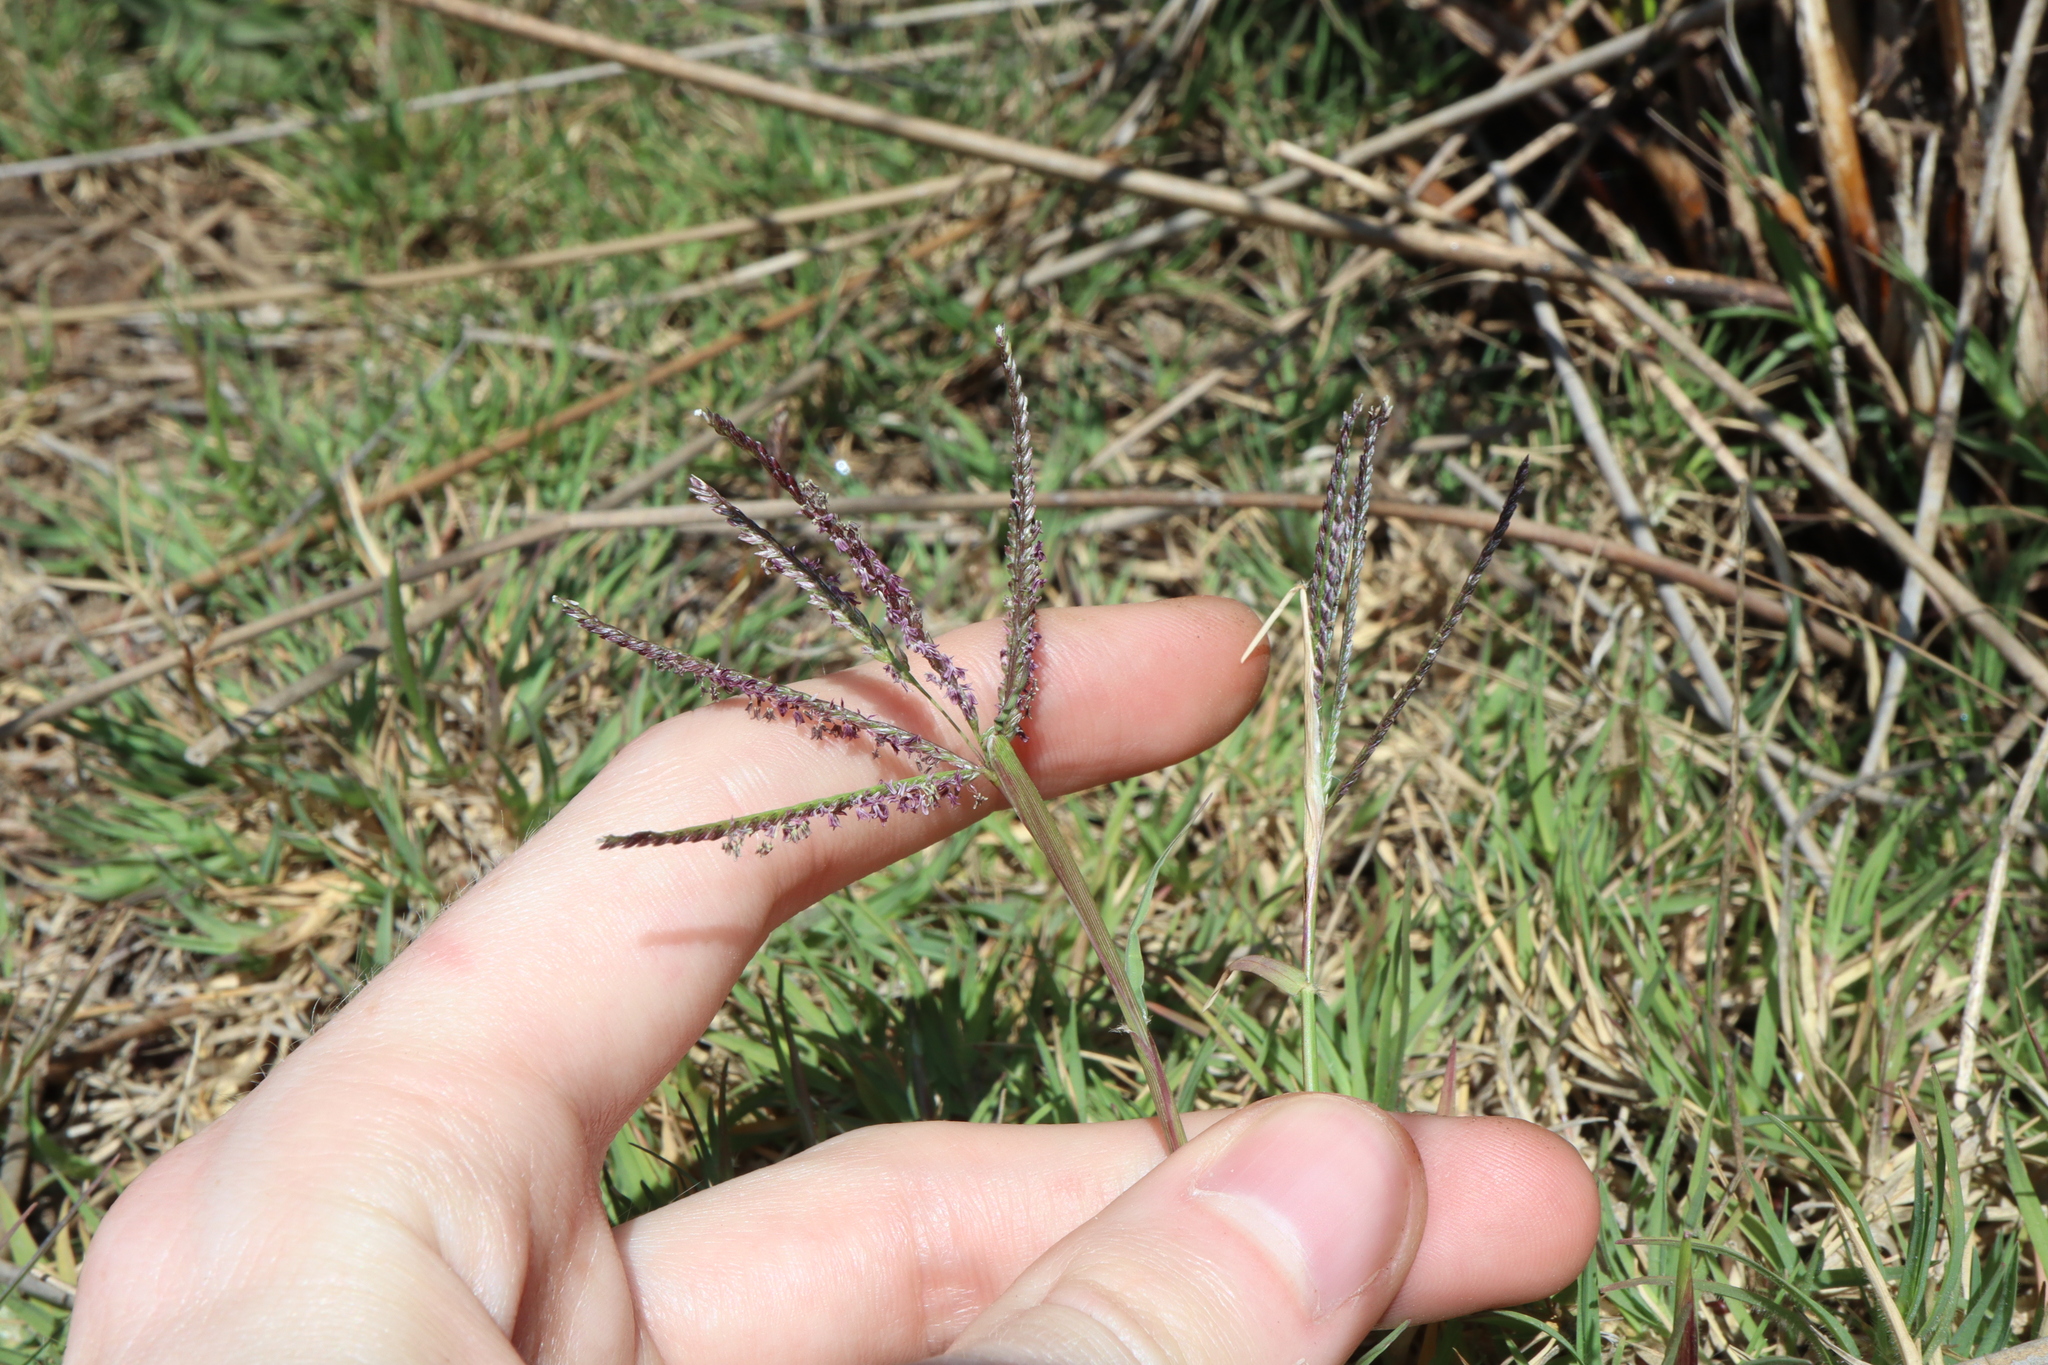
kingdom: Plantae
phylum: Tracheophyta
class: Liliopsida
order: Poales
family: Poaceae
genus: Cynodon
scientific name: Cynodon dactylon
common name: Bermuda grass
